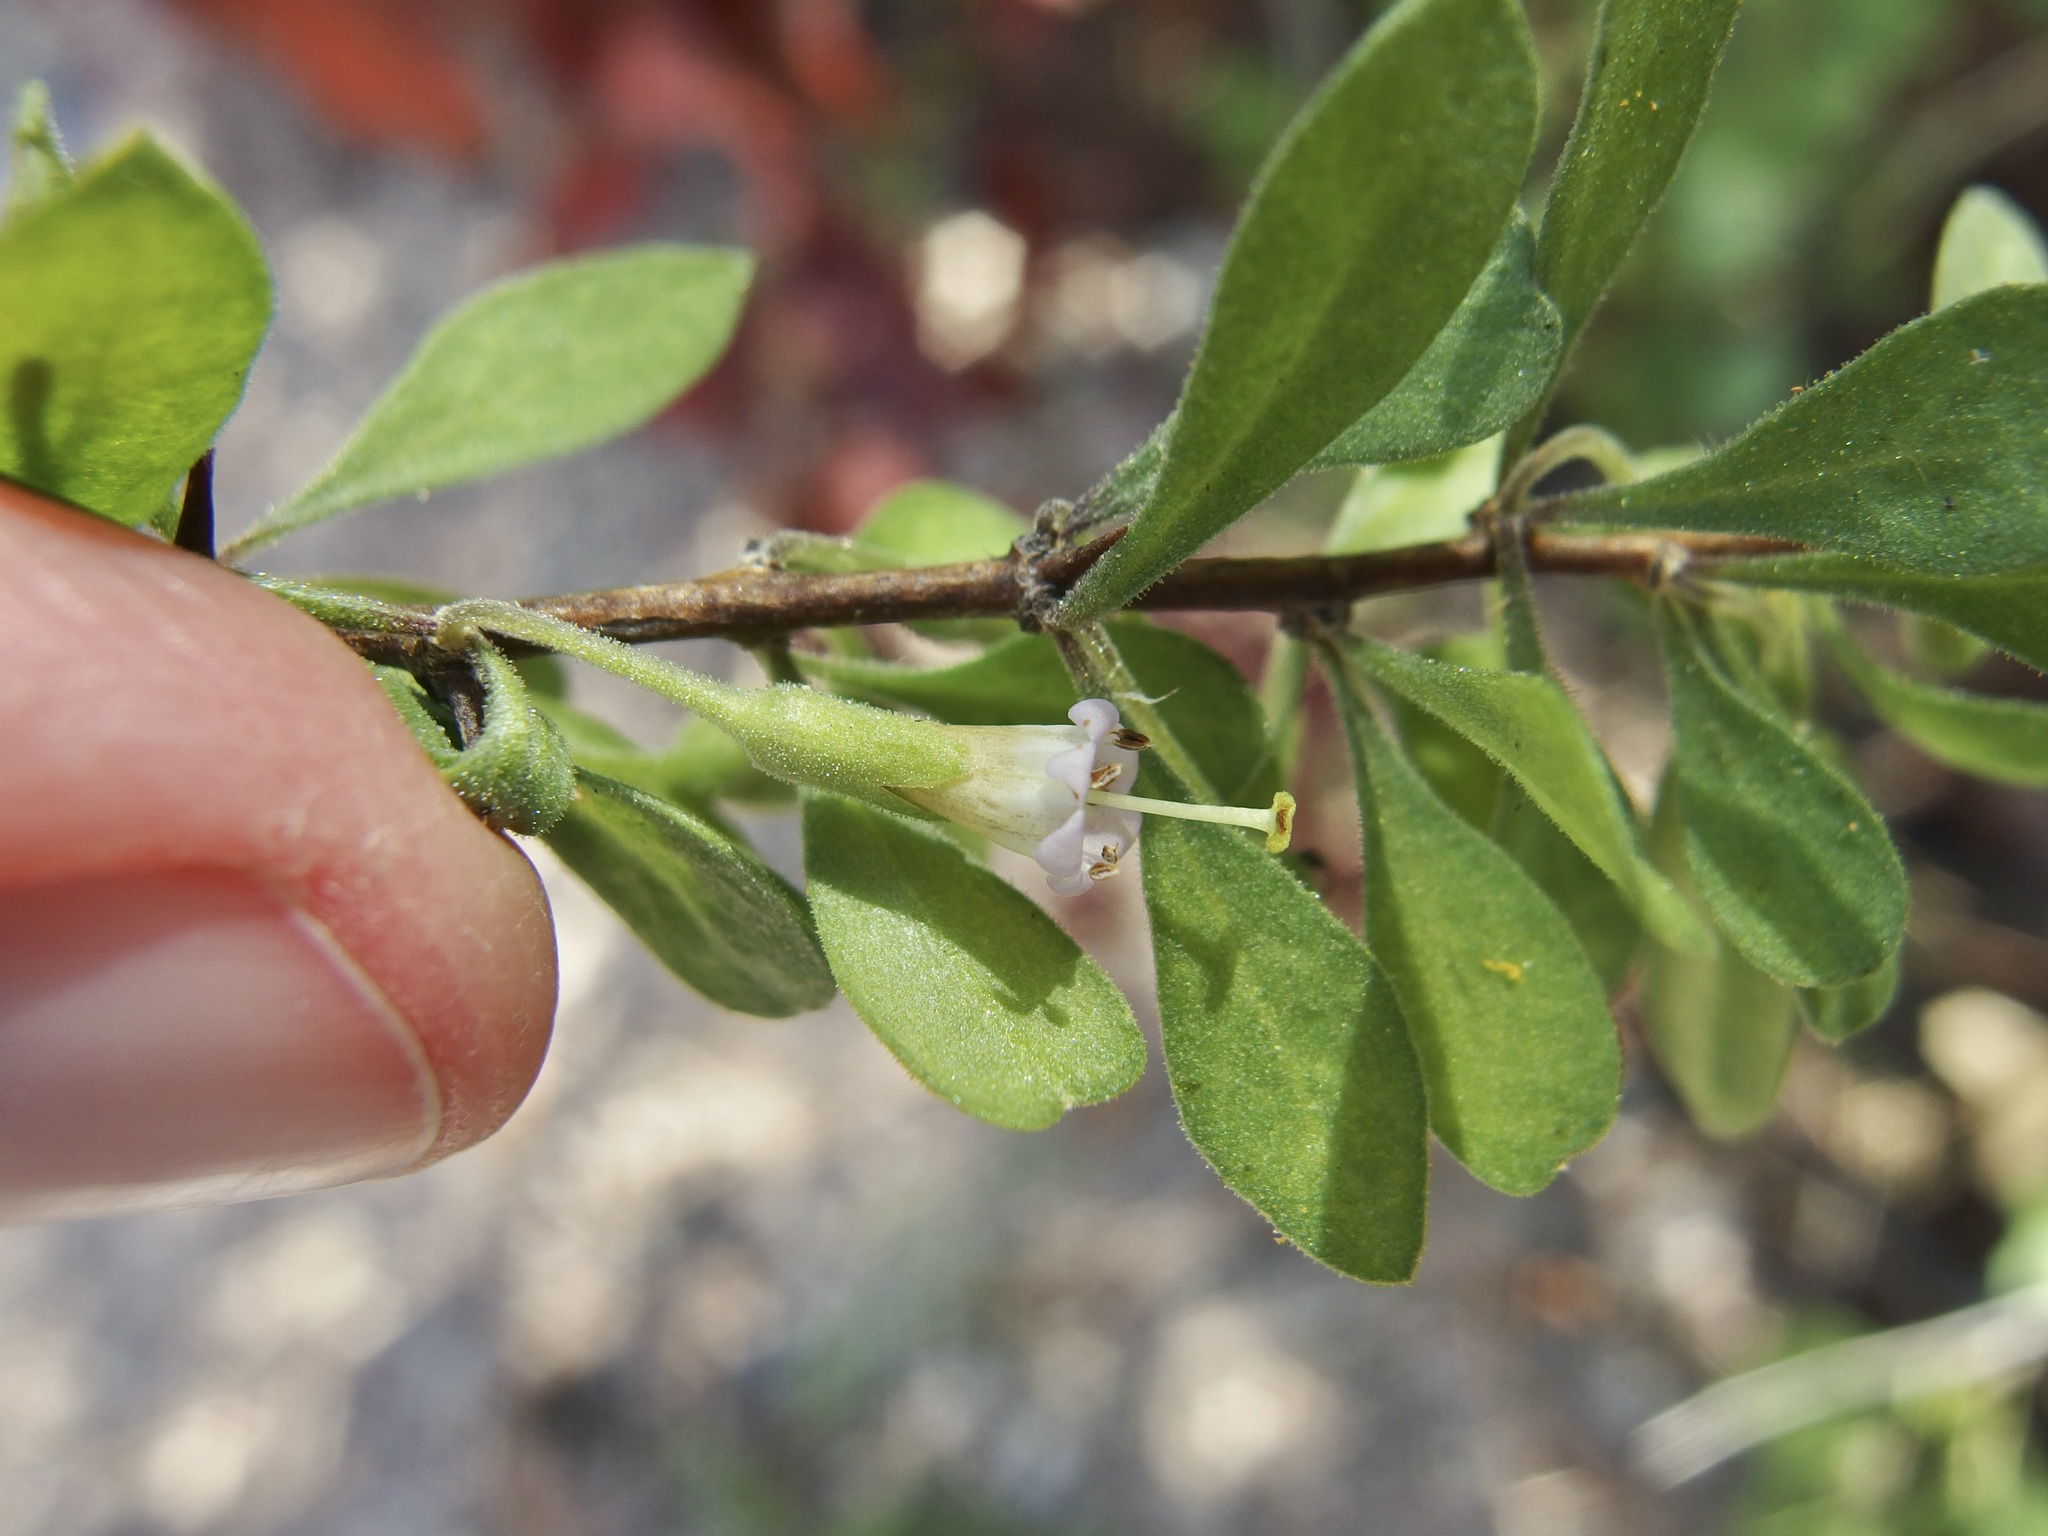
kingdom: Plantae
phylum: Tracheophyta
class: Magnoliopsida
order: Solanales
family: Solanaceae
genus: Lycium
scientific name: Lycium exsertum
